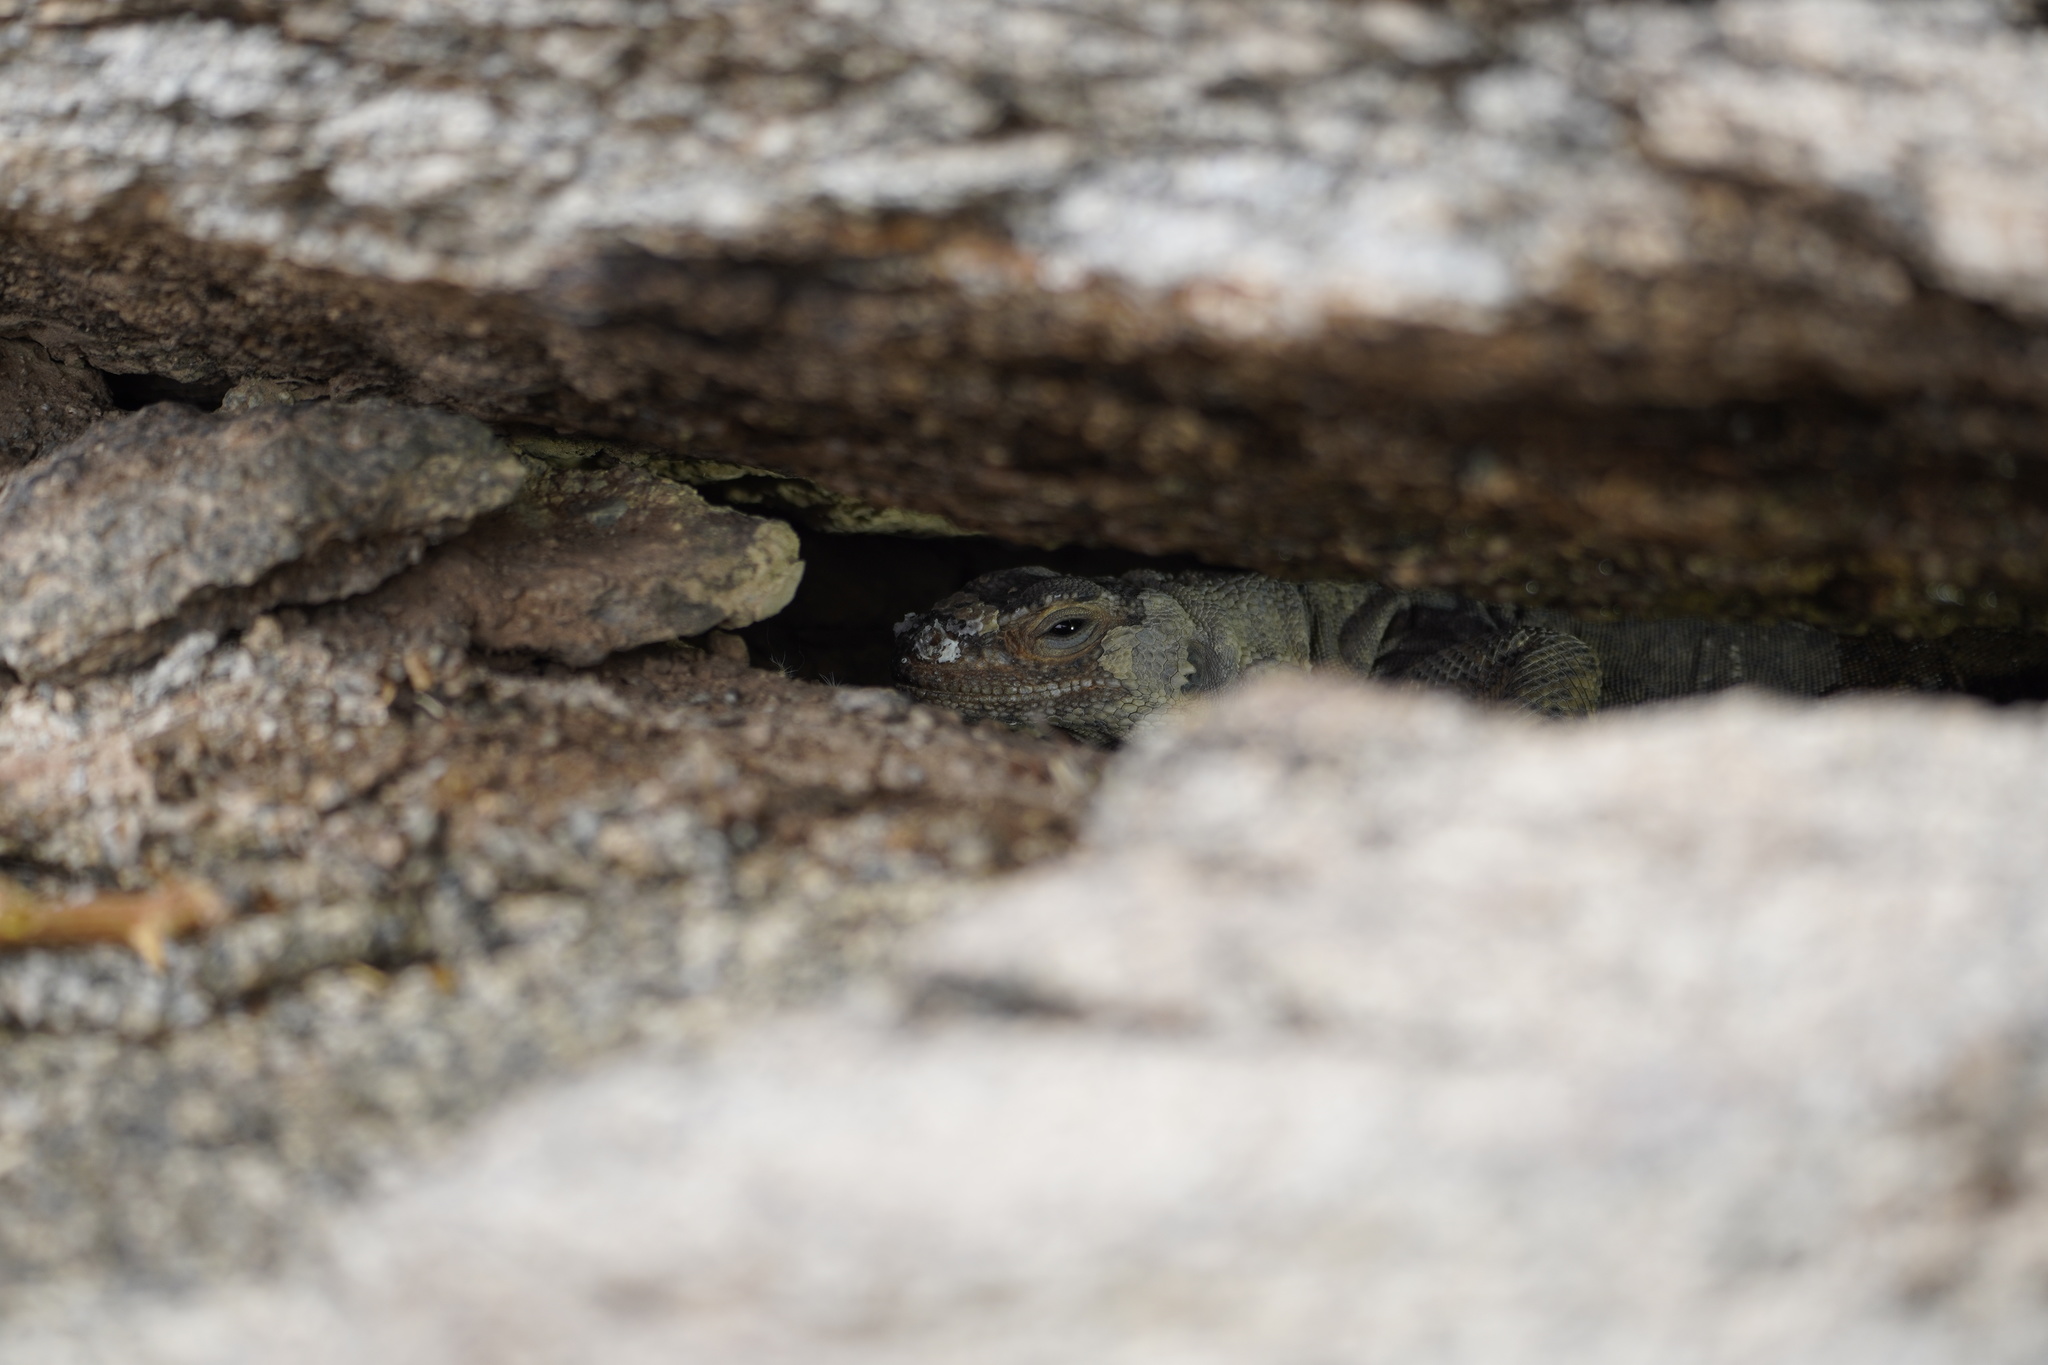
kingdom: Animalia
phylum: Chordata
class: Squamata
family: Iguanidae
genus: Sauromalus
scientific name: Sauromalus ater
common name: Northern chuckwalla
